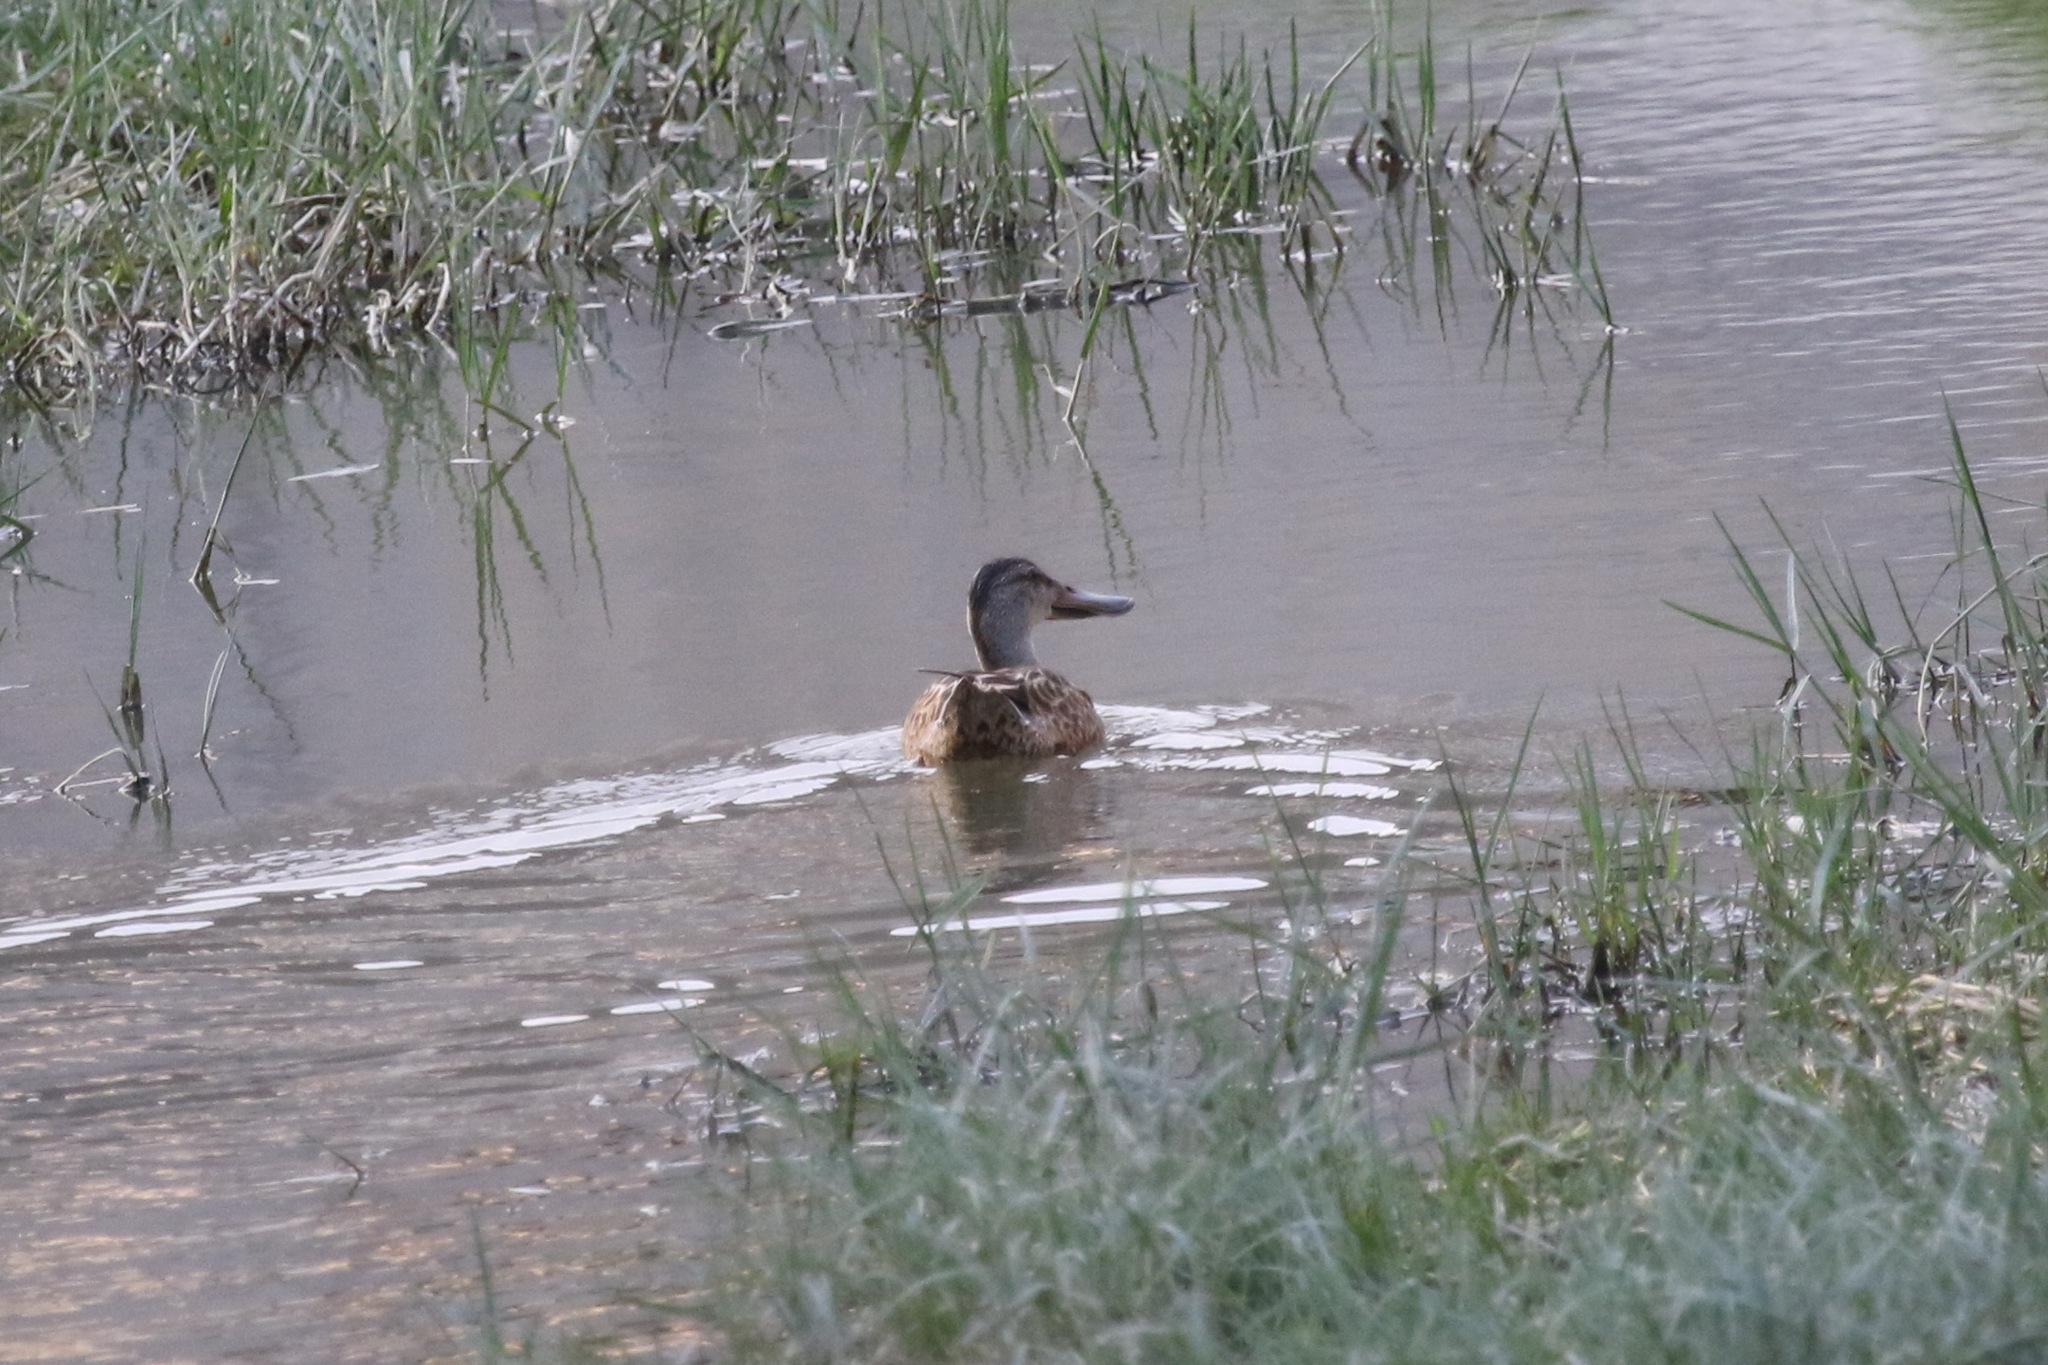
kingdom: Animalia
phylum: Chordata
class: Aves
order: Anseriformes
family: Anatidae
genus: Spatula
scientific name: Spatula clypeata
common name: Northern shoveler
